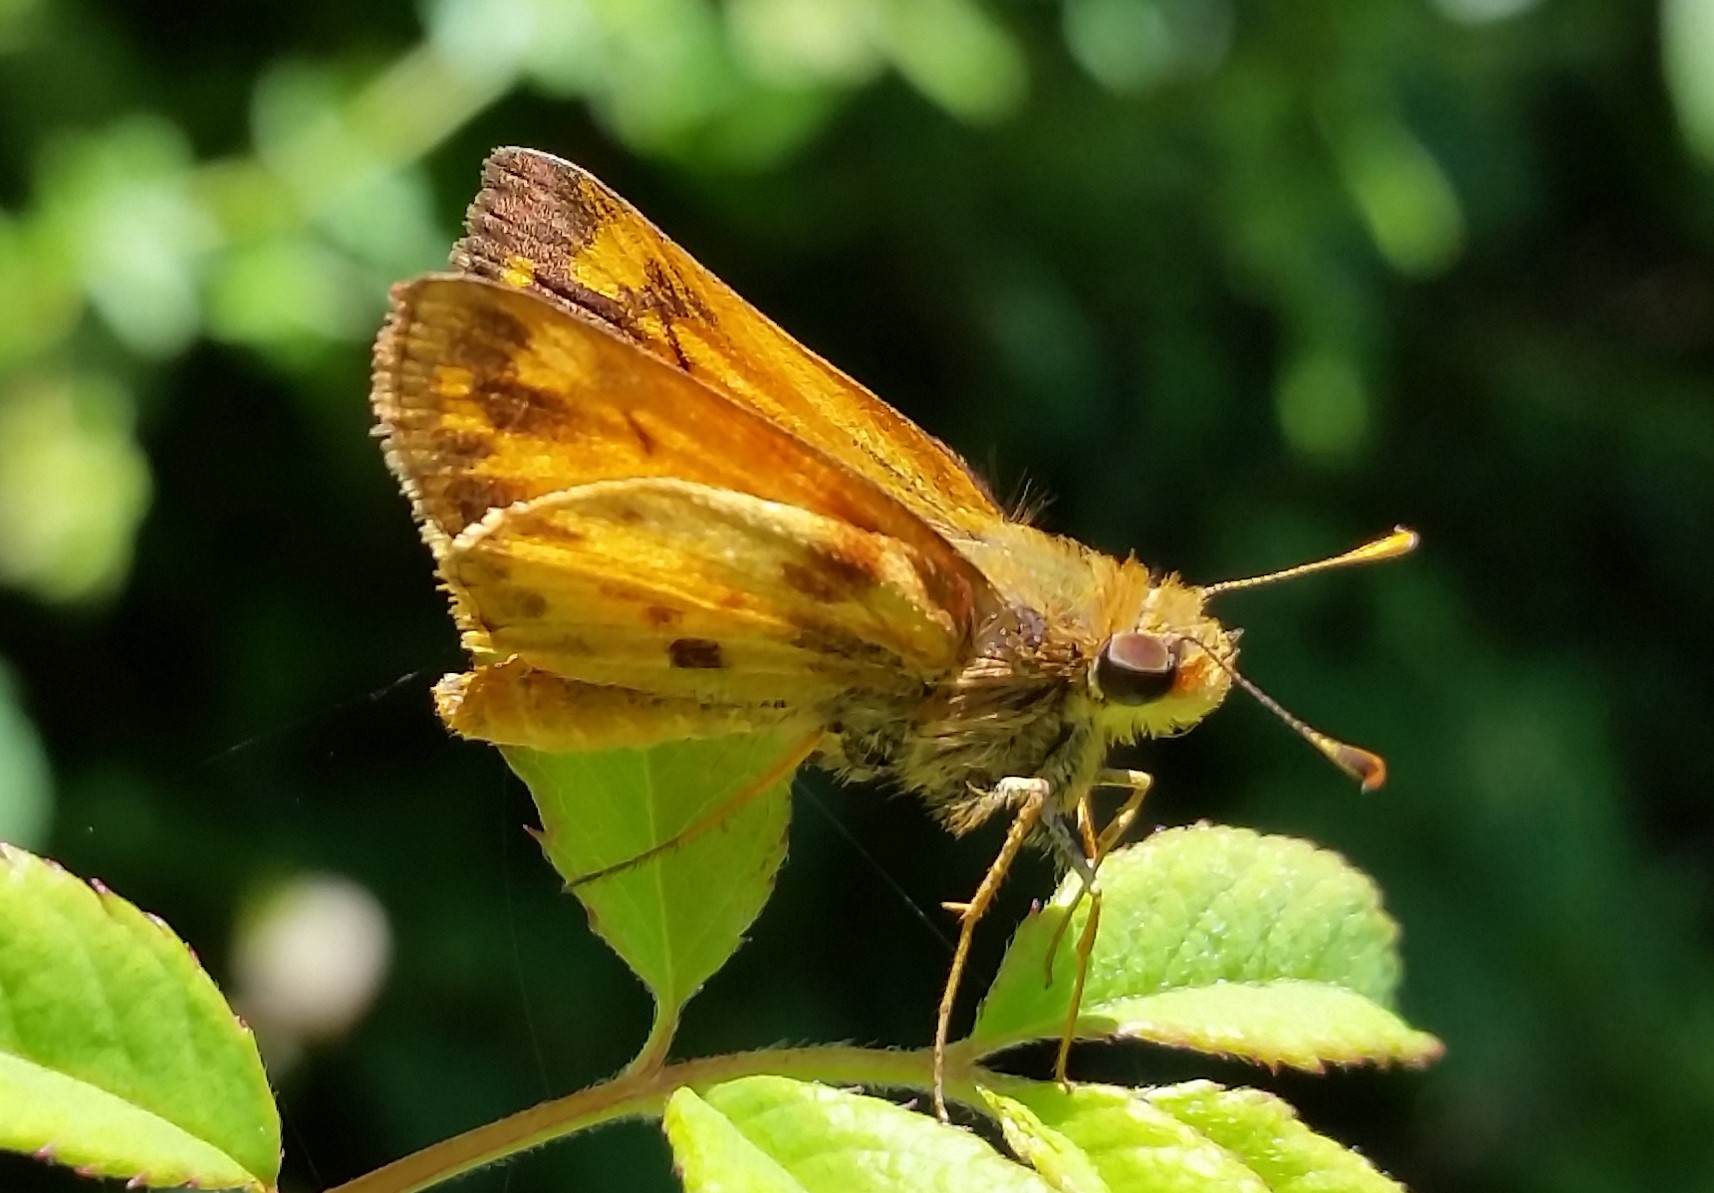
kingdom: Animalia
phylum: Arthropoda
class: Insecta
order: Lepidoptera
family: Hesperiidae
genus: Lon
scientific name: Lon zabulon
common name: Zabulon skipper
